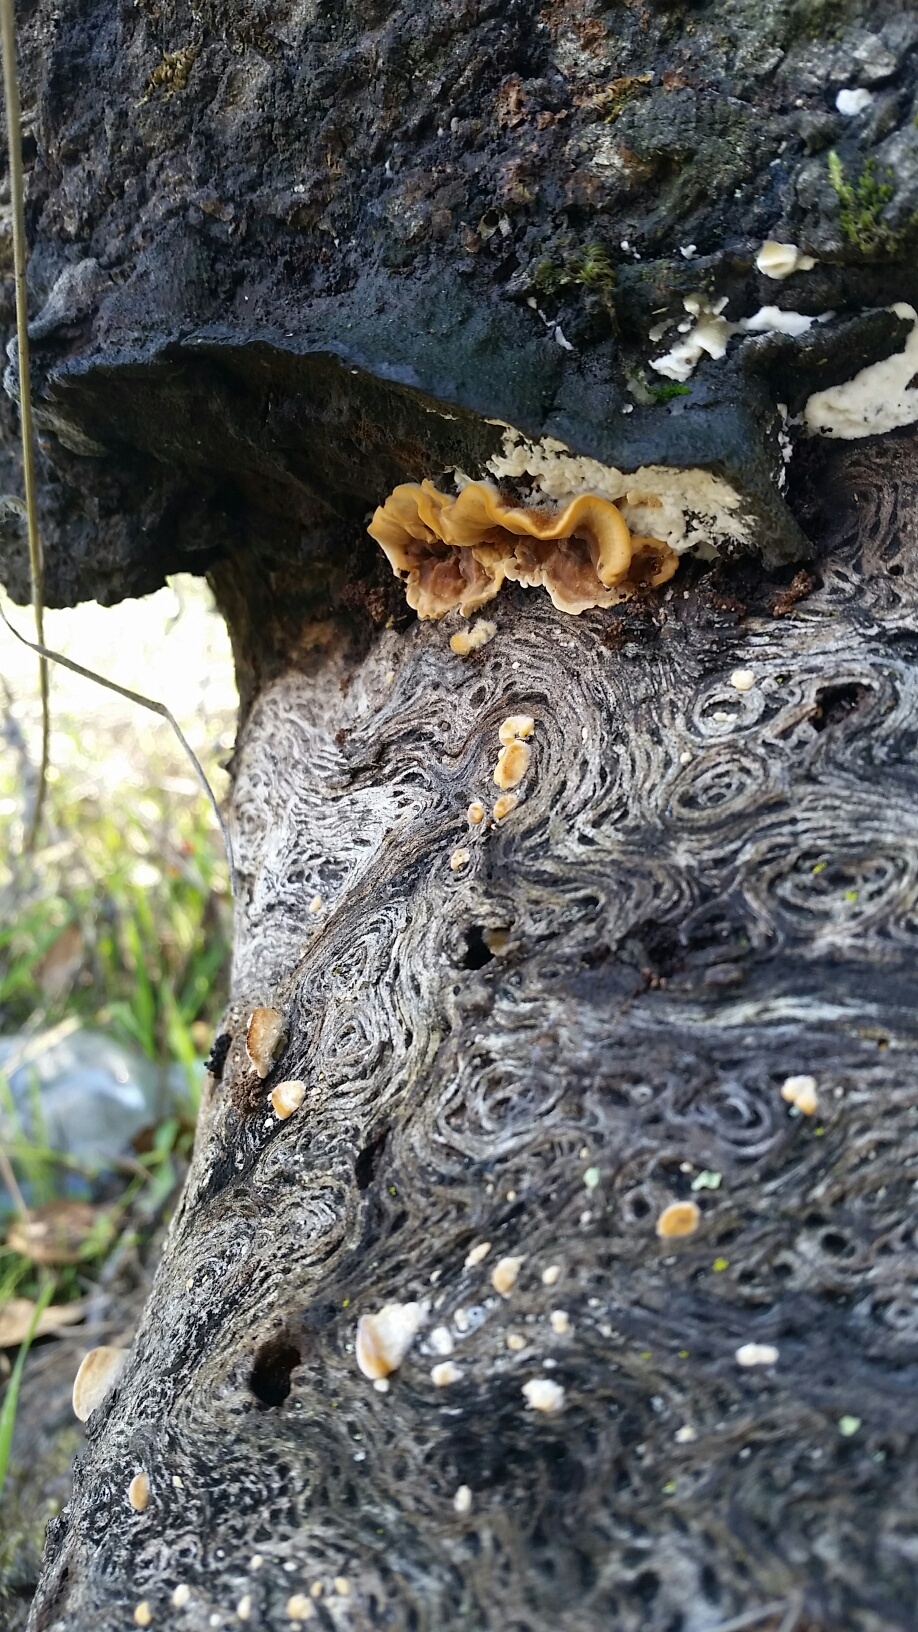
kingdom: Fungi
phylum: Basidiomycota
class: Agaricomycetes
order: Russulales
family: Stereaceae
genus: Stereum
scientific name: Stereum hirsutum
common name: Hairy curtain crust
